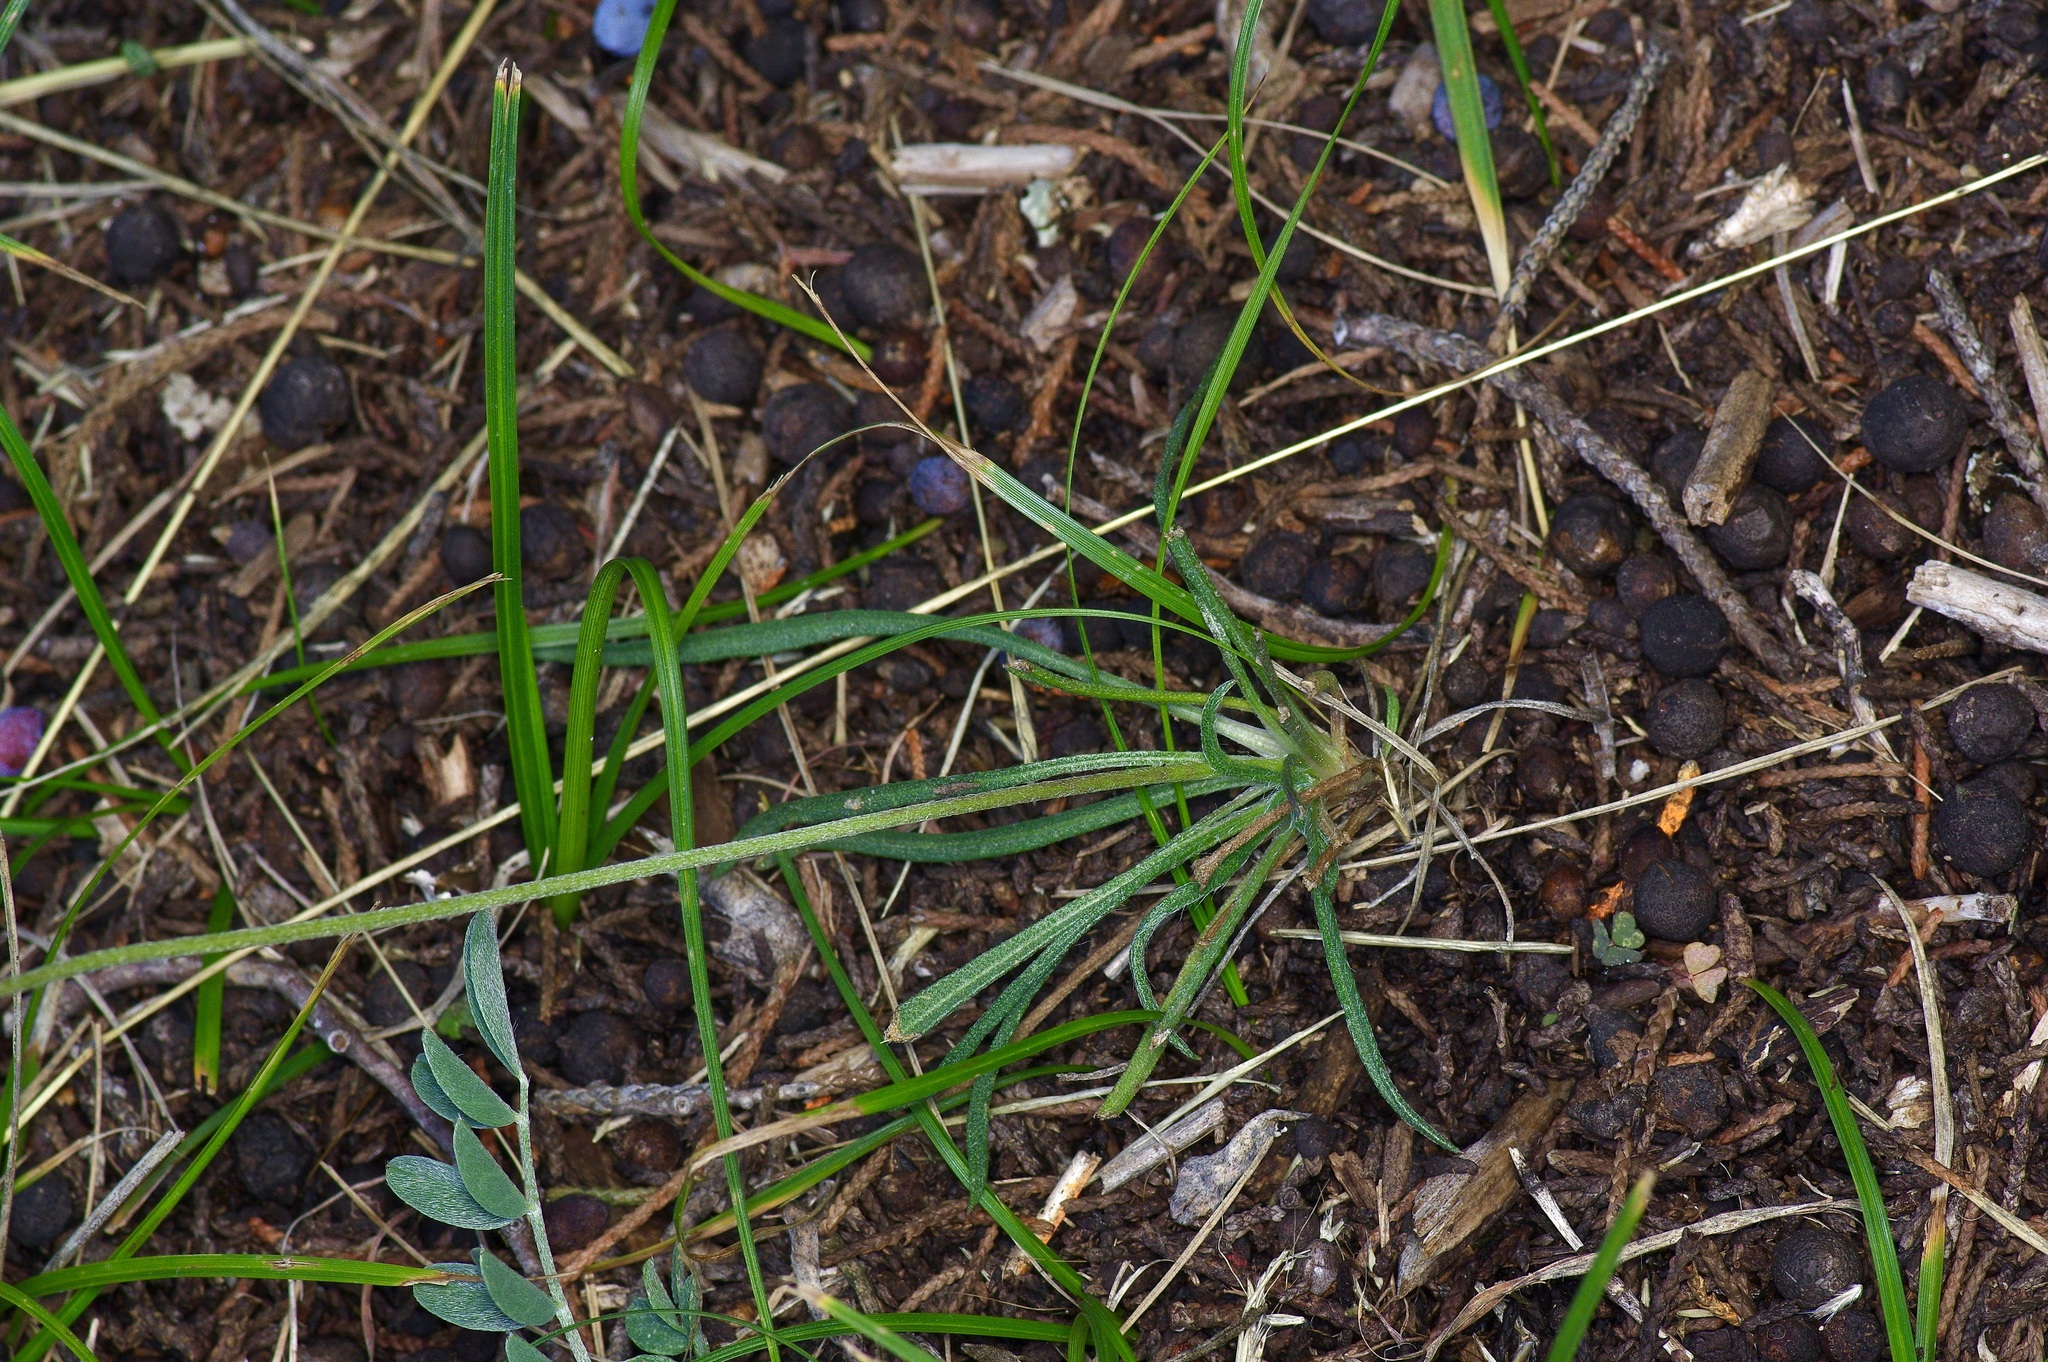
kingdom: Plantae
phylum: Tracheophyta
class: Magnoliopsida
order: Asterales
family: Asteraceae
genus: Tetraneuris
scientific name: Tetraneuris scaposa
